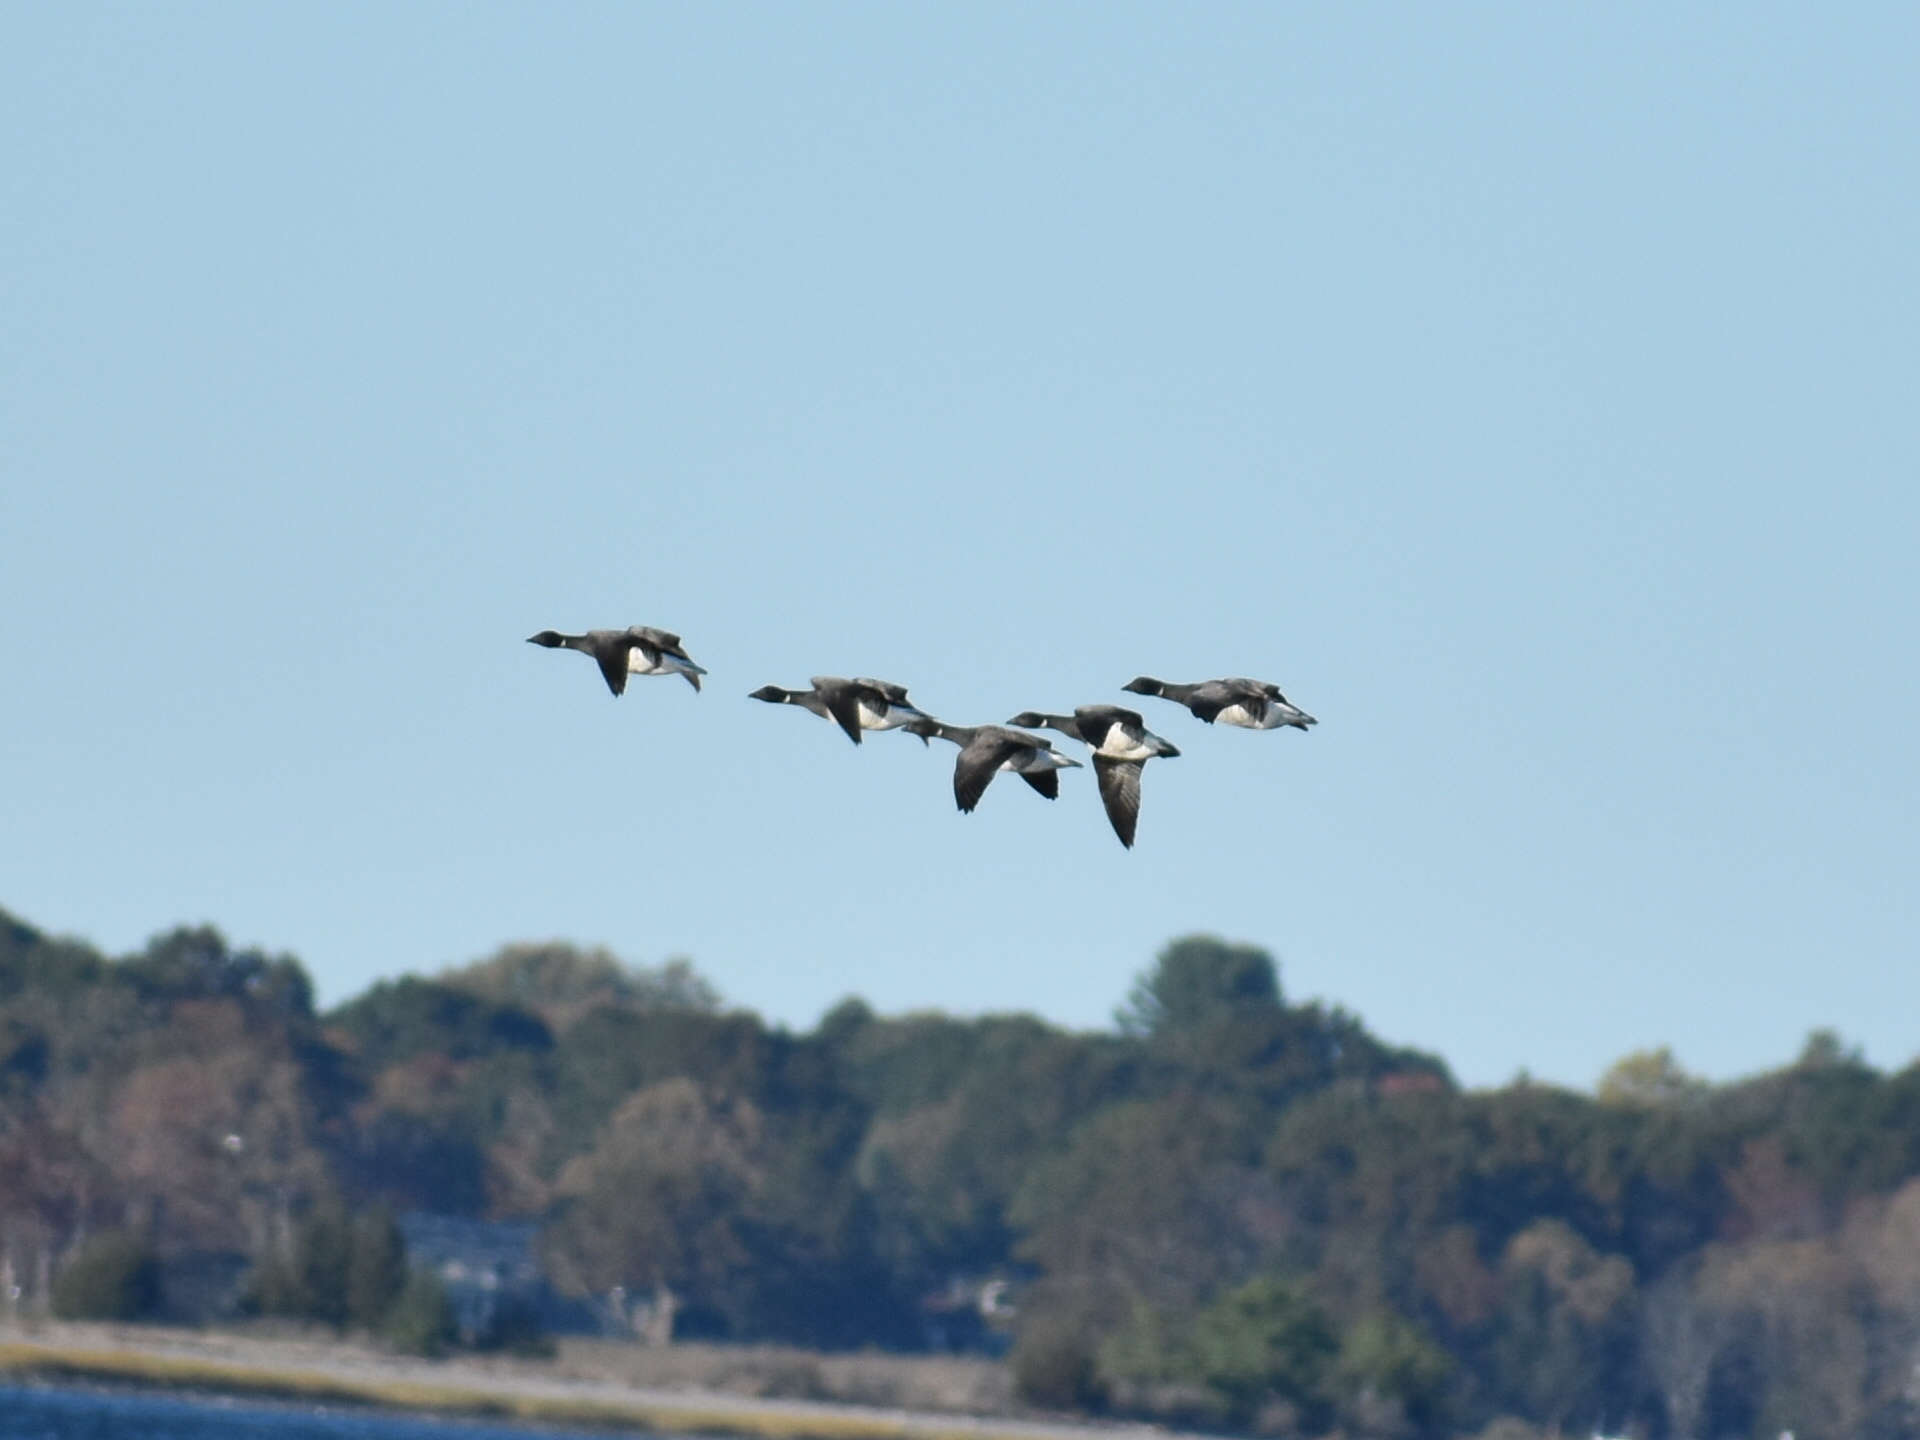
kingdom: Animalia
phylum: Chordata
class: Aves
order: Anseriformes
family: Anatidae
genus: Branta
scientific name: Branta bernicla
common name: Brant goose
